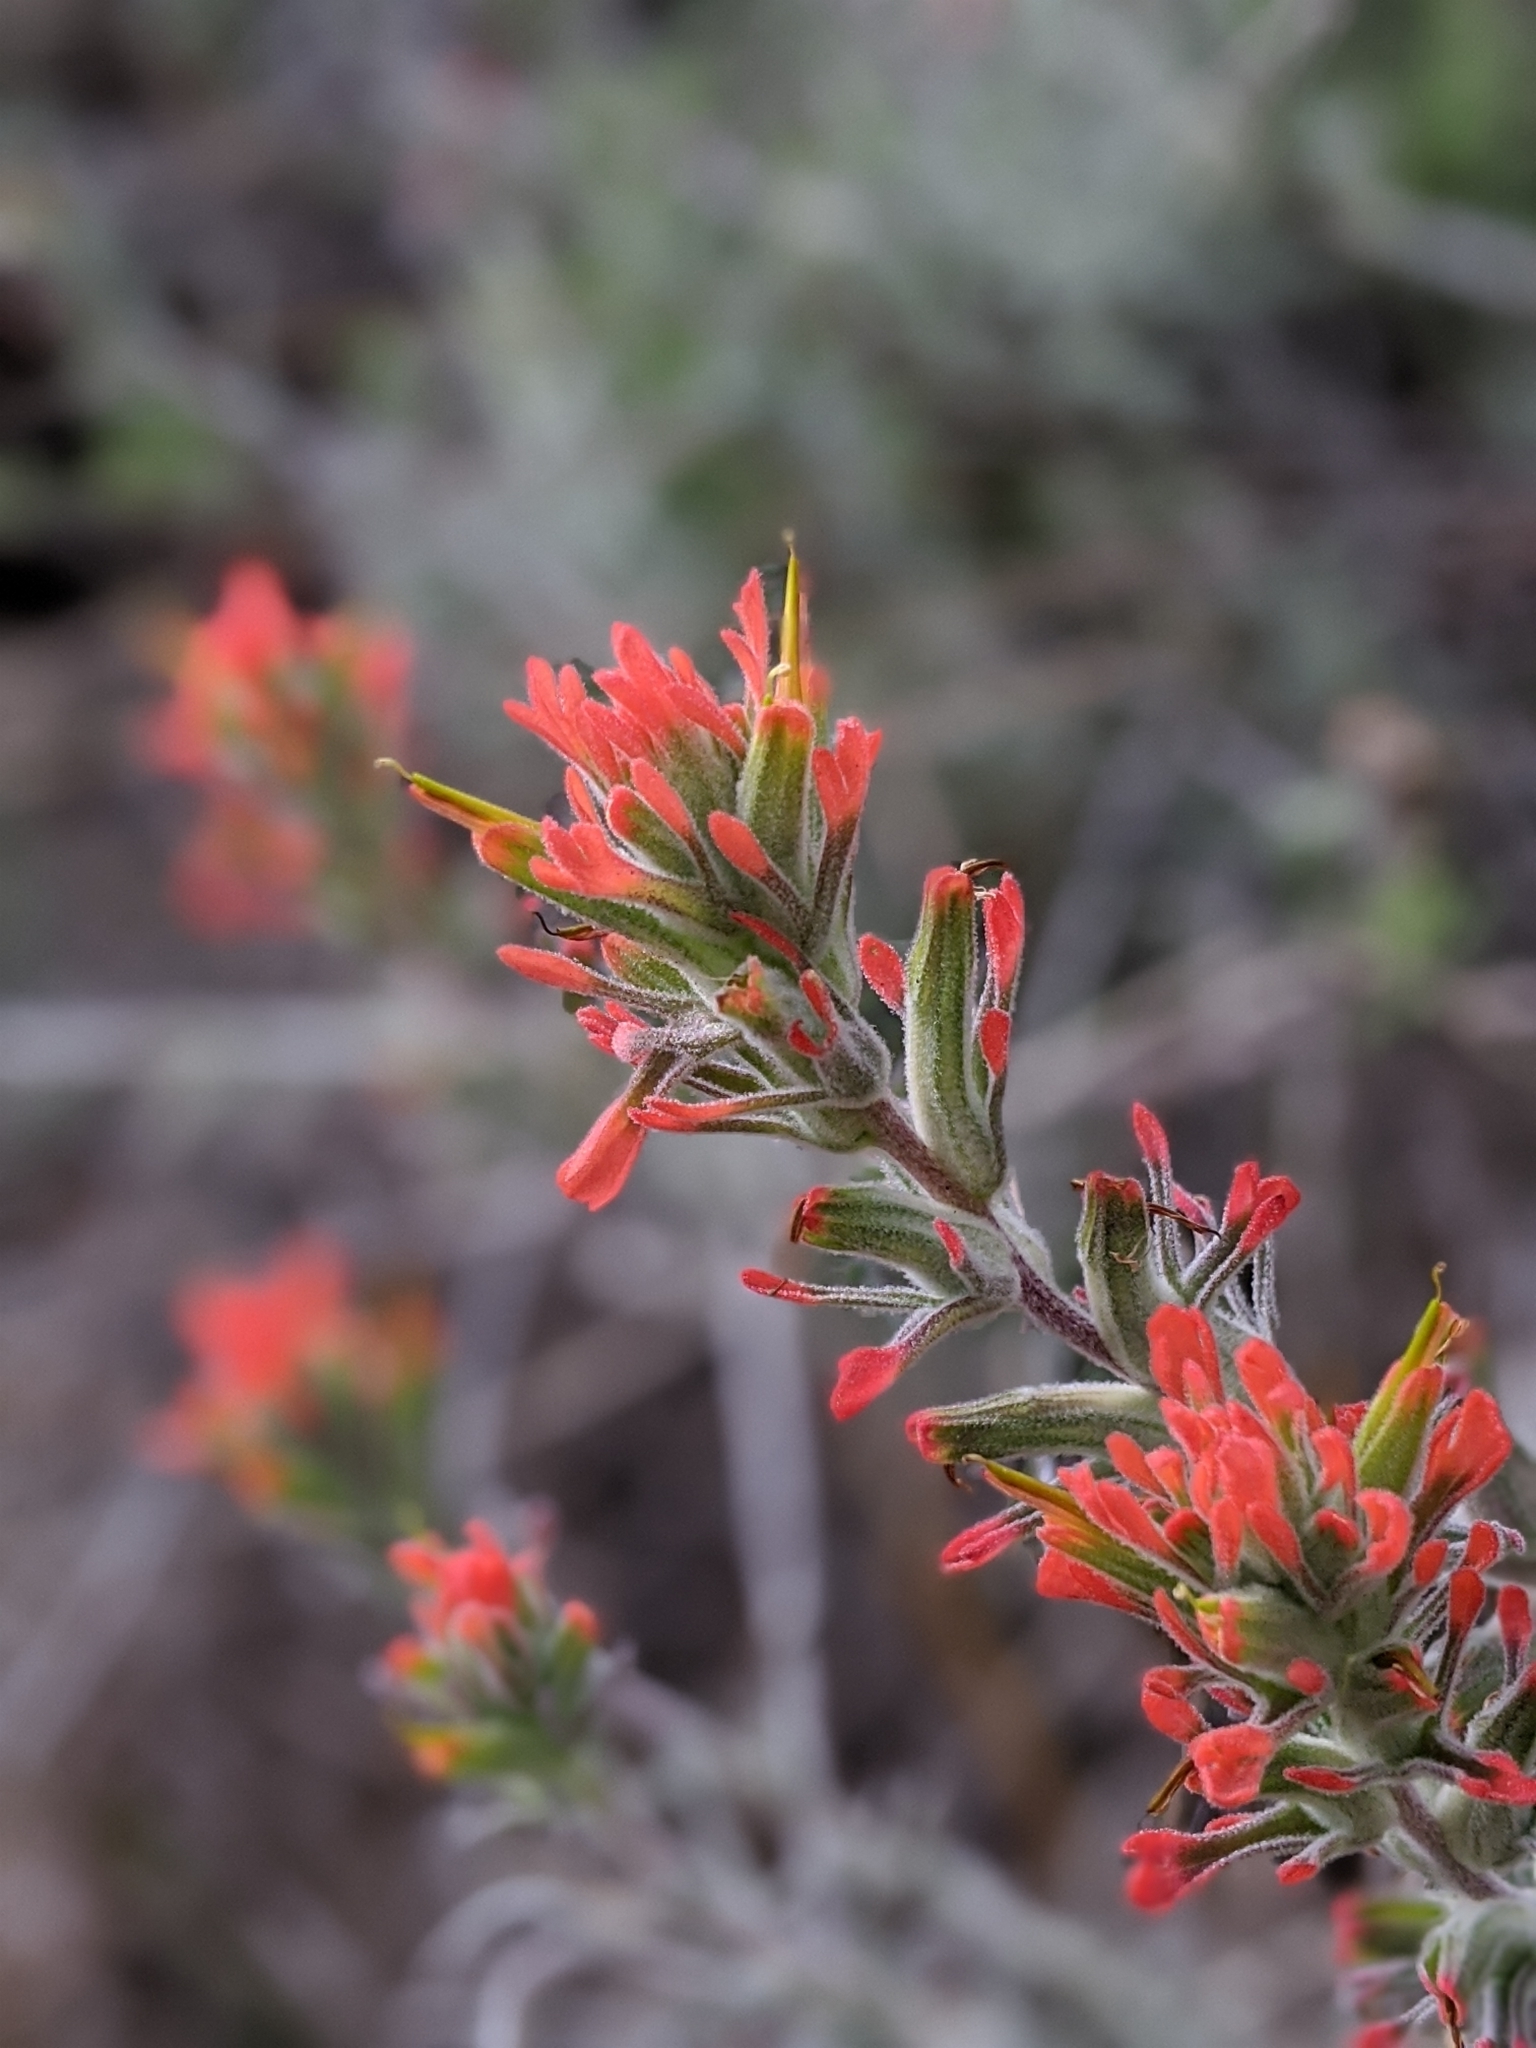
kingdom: Plantae
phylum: Tracheophyta
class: Magnoliopsida
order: Lamiales
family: Orobanchaceae
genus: Castilleja
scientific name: Castilleja foliolosa
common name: Woolly indian paintbrush
